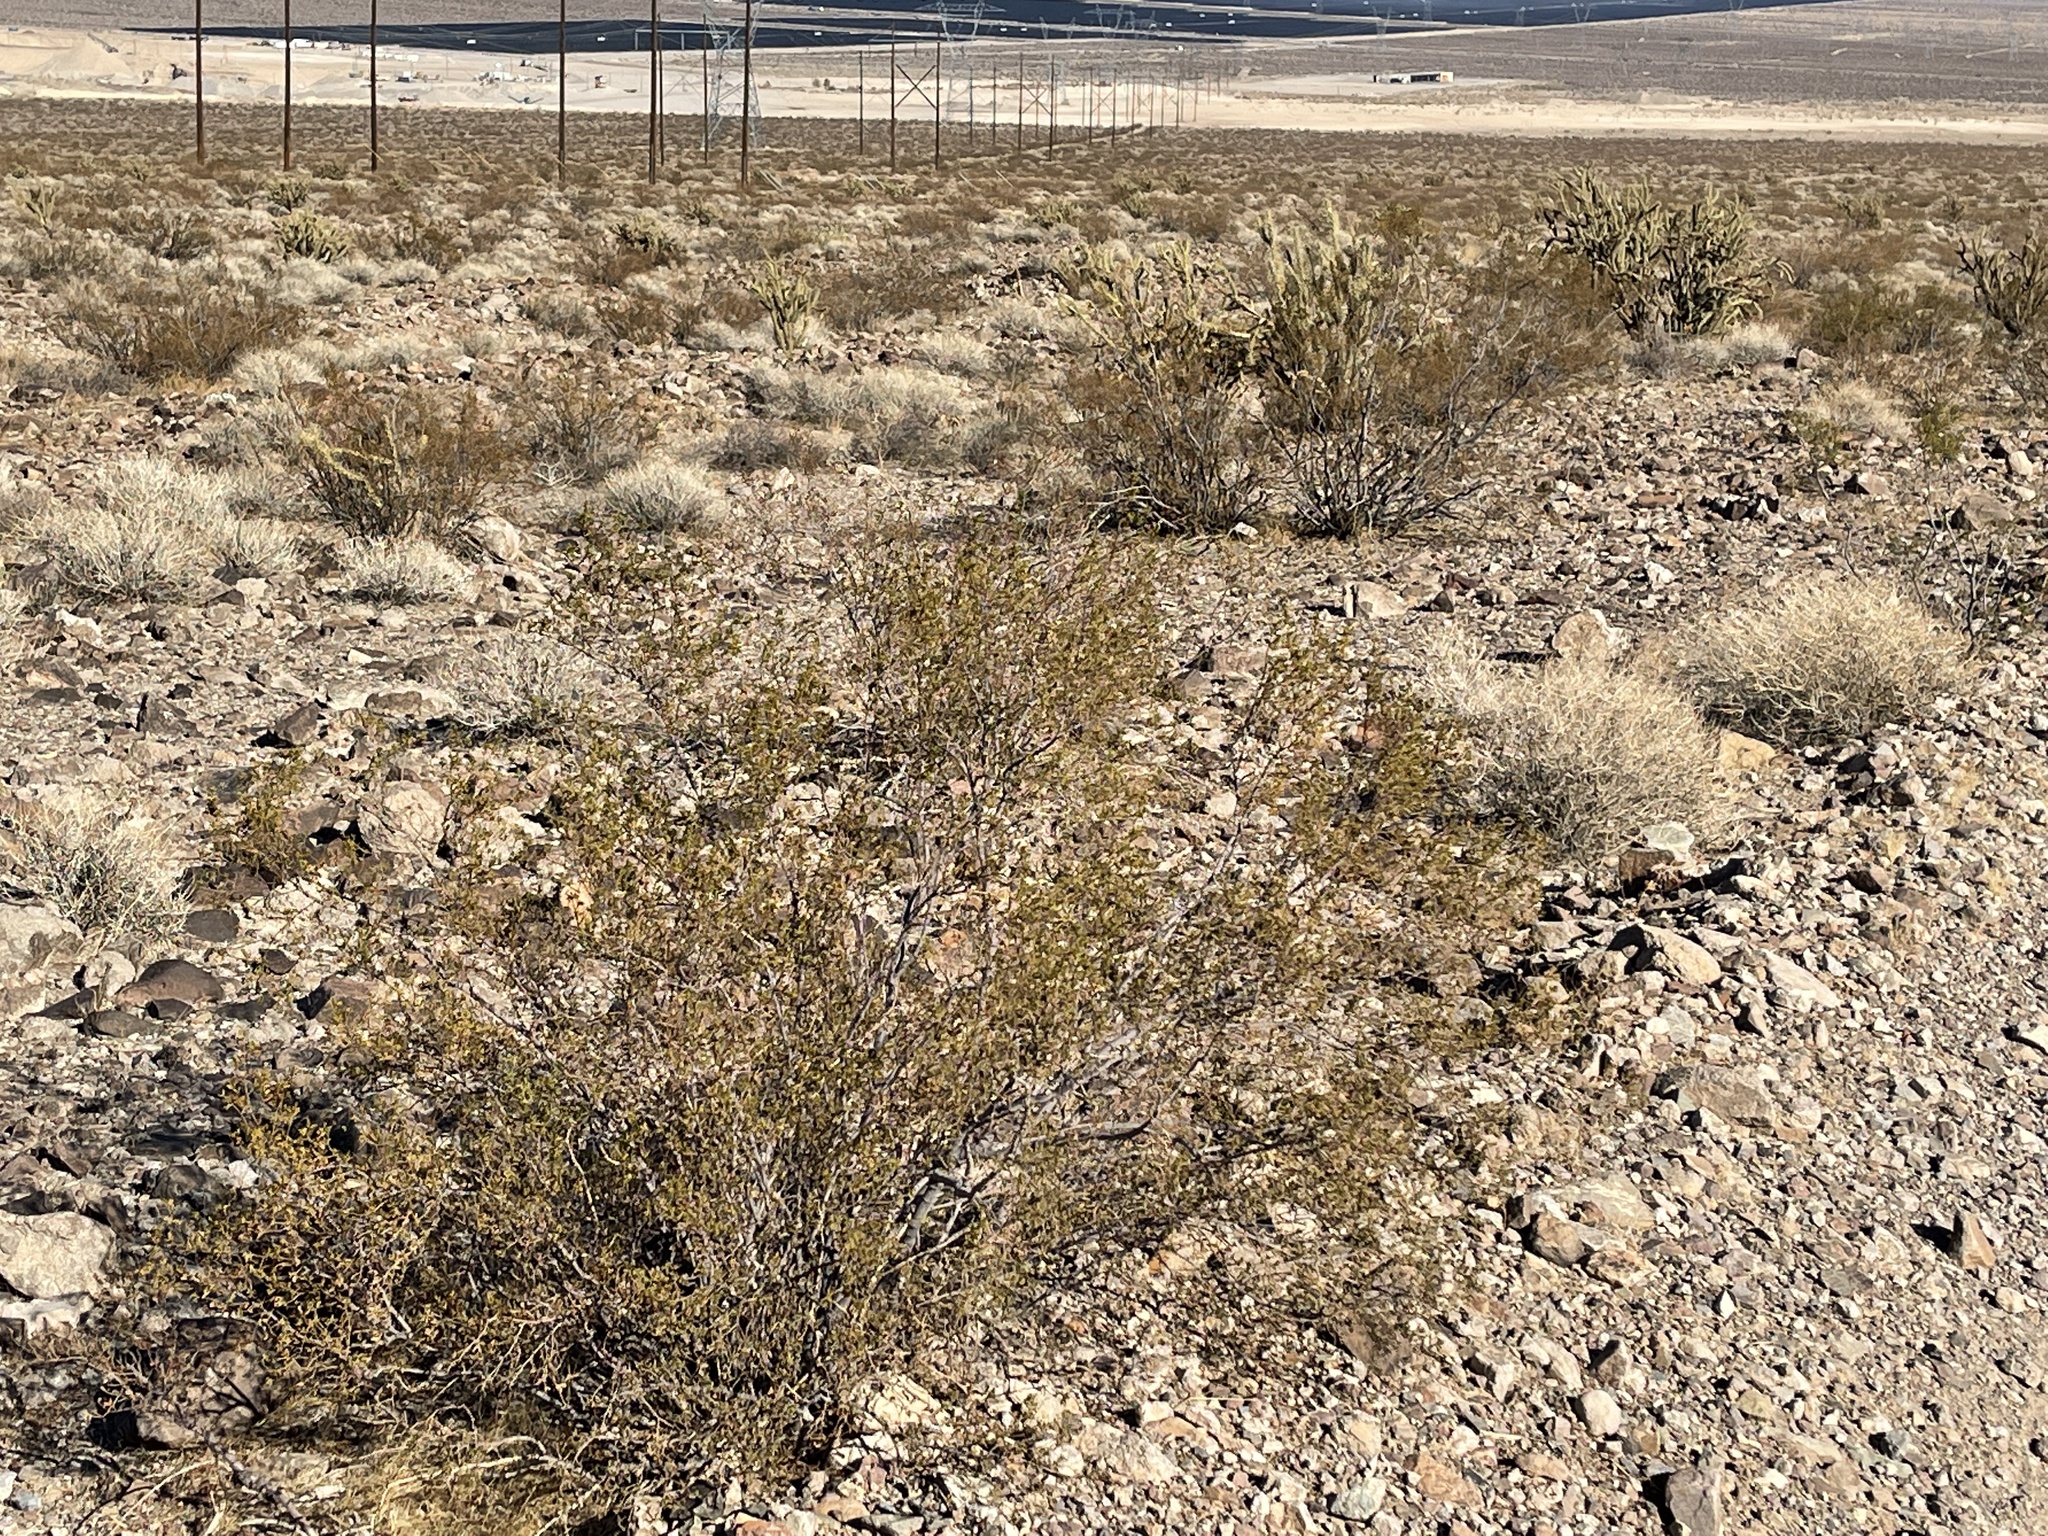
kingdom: Plantae
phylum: Tracheophyta
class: Magnoliopsida
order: Zygophyllales
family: Zygophyllaceae
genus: Larrea
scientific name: Larrea tridentata
